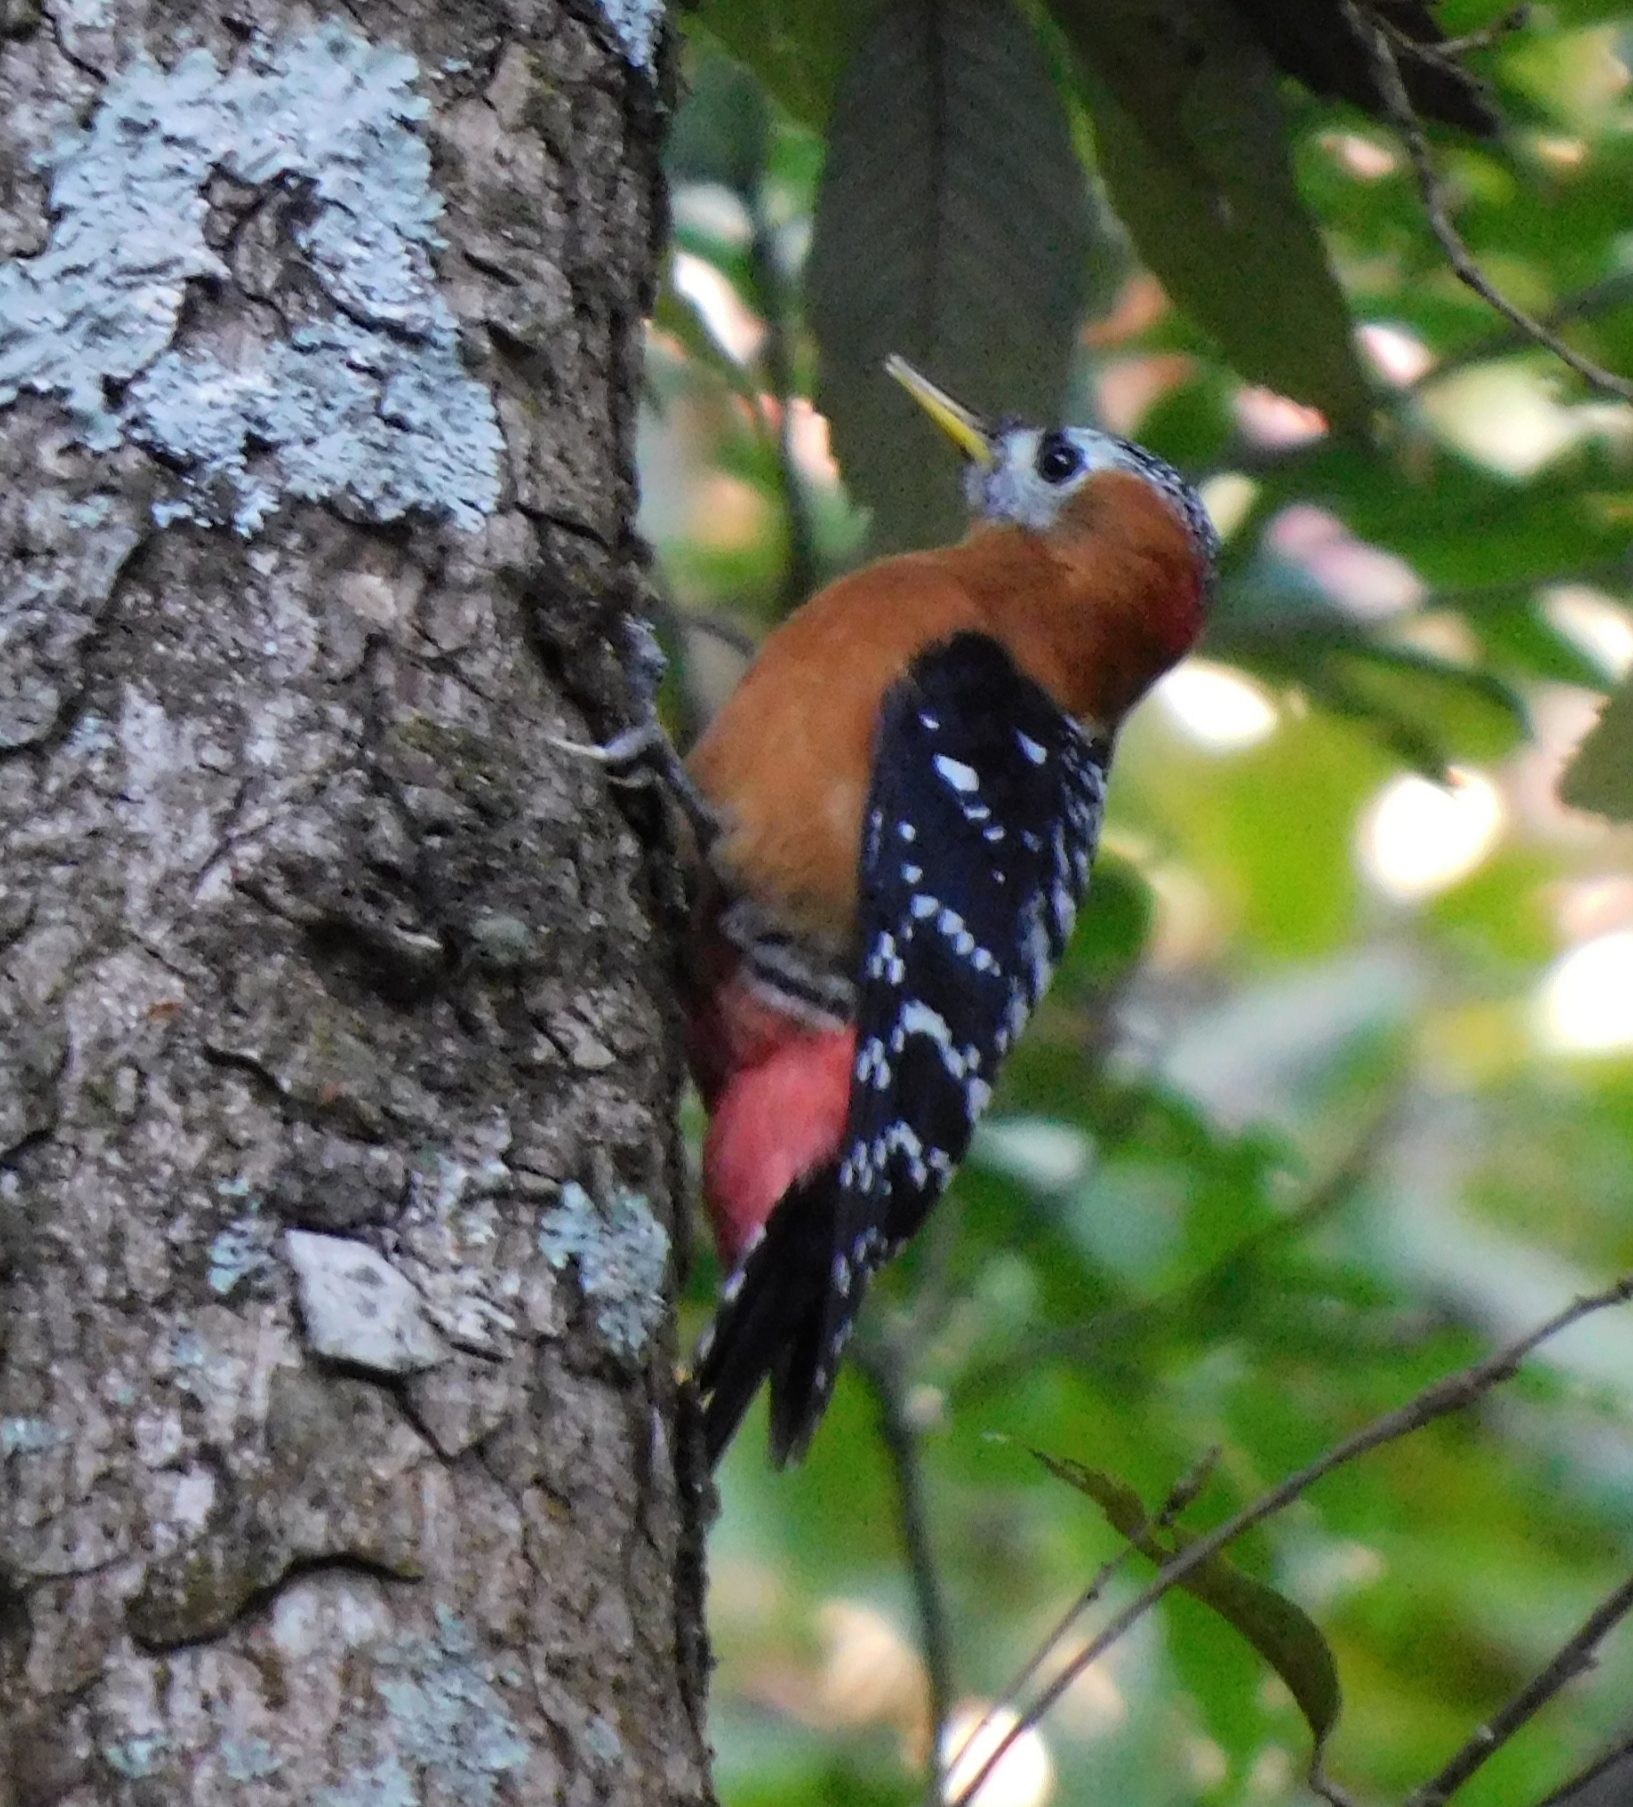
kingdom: Animalia
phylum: Chordata
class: Aves
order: Piciformes
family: Picidae
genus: Dendrocopos
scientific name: Dendrocopos hyperythrus
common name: Rufous-bellied woodpecker
